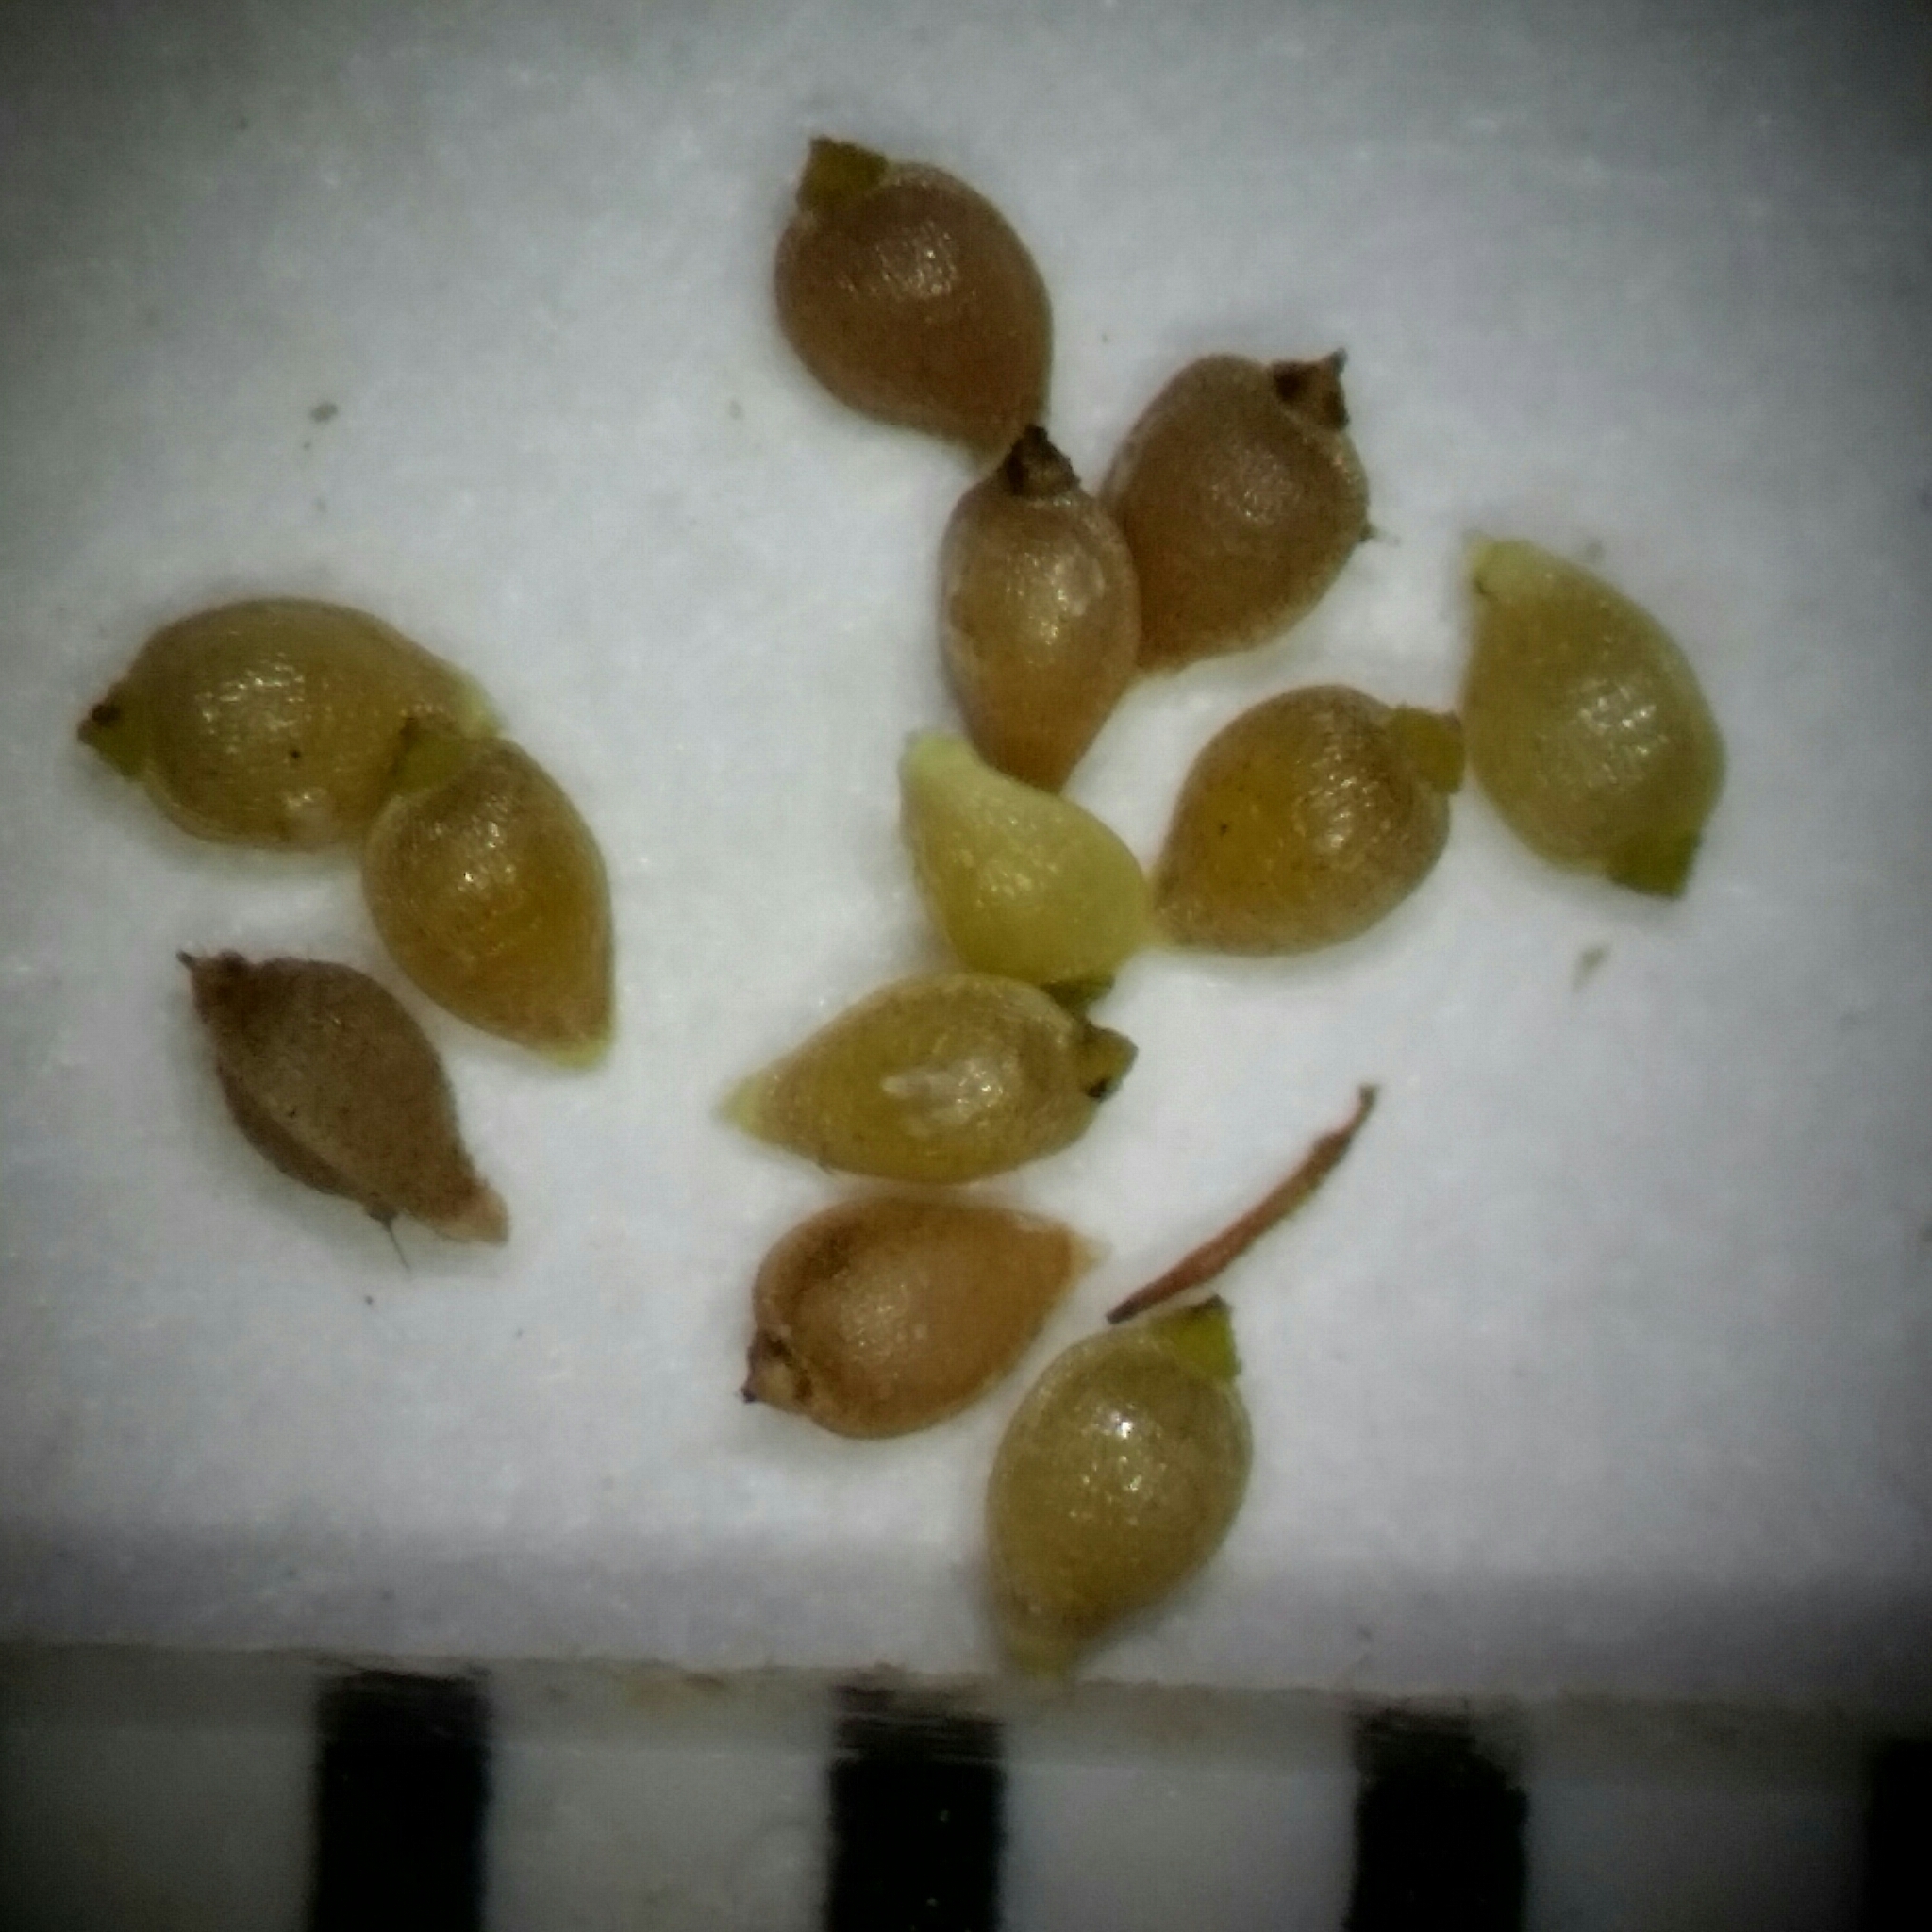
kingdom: Plantae
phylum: Tracheophyta
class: Liliopsida
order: Poales
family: Cyperaceae
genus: Rhynchospora
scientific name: Rhynchospora divergens
